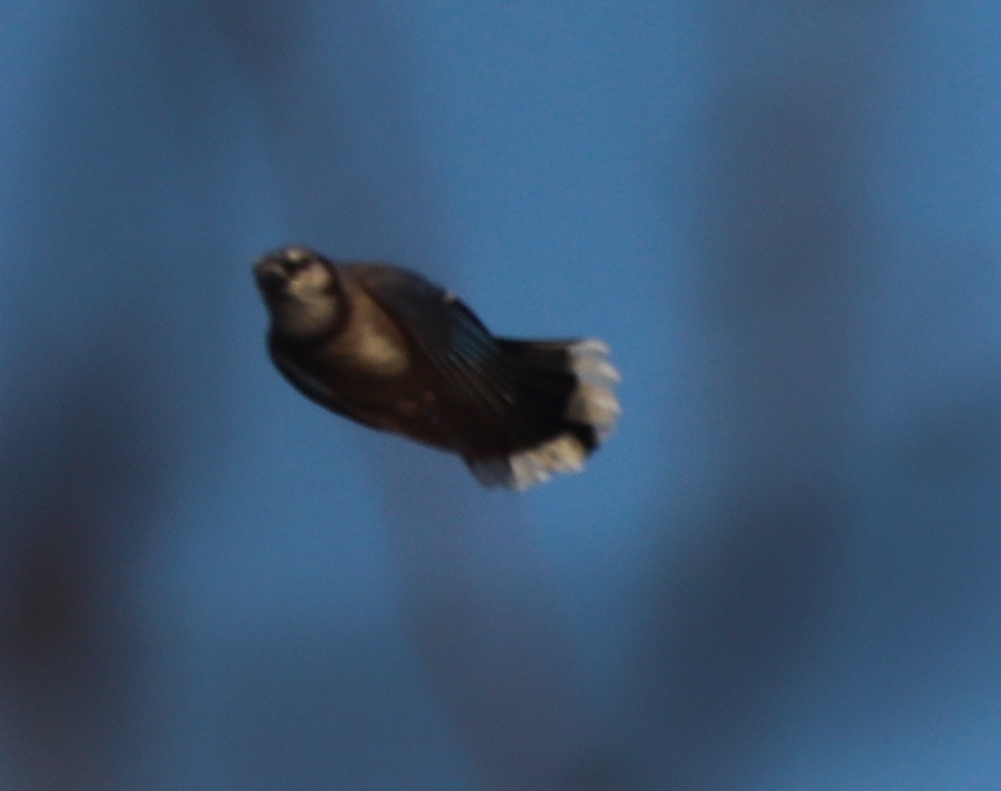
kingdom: Animalia
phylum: Chordata
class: Aves
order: Passeriformes
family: Corvidae
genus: Cyanocitta
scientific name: Cyanocitta cristata
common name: Blue jay
